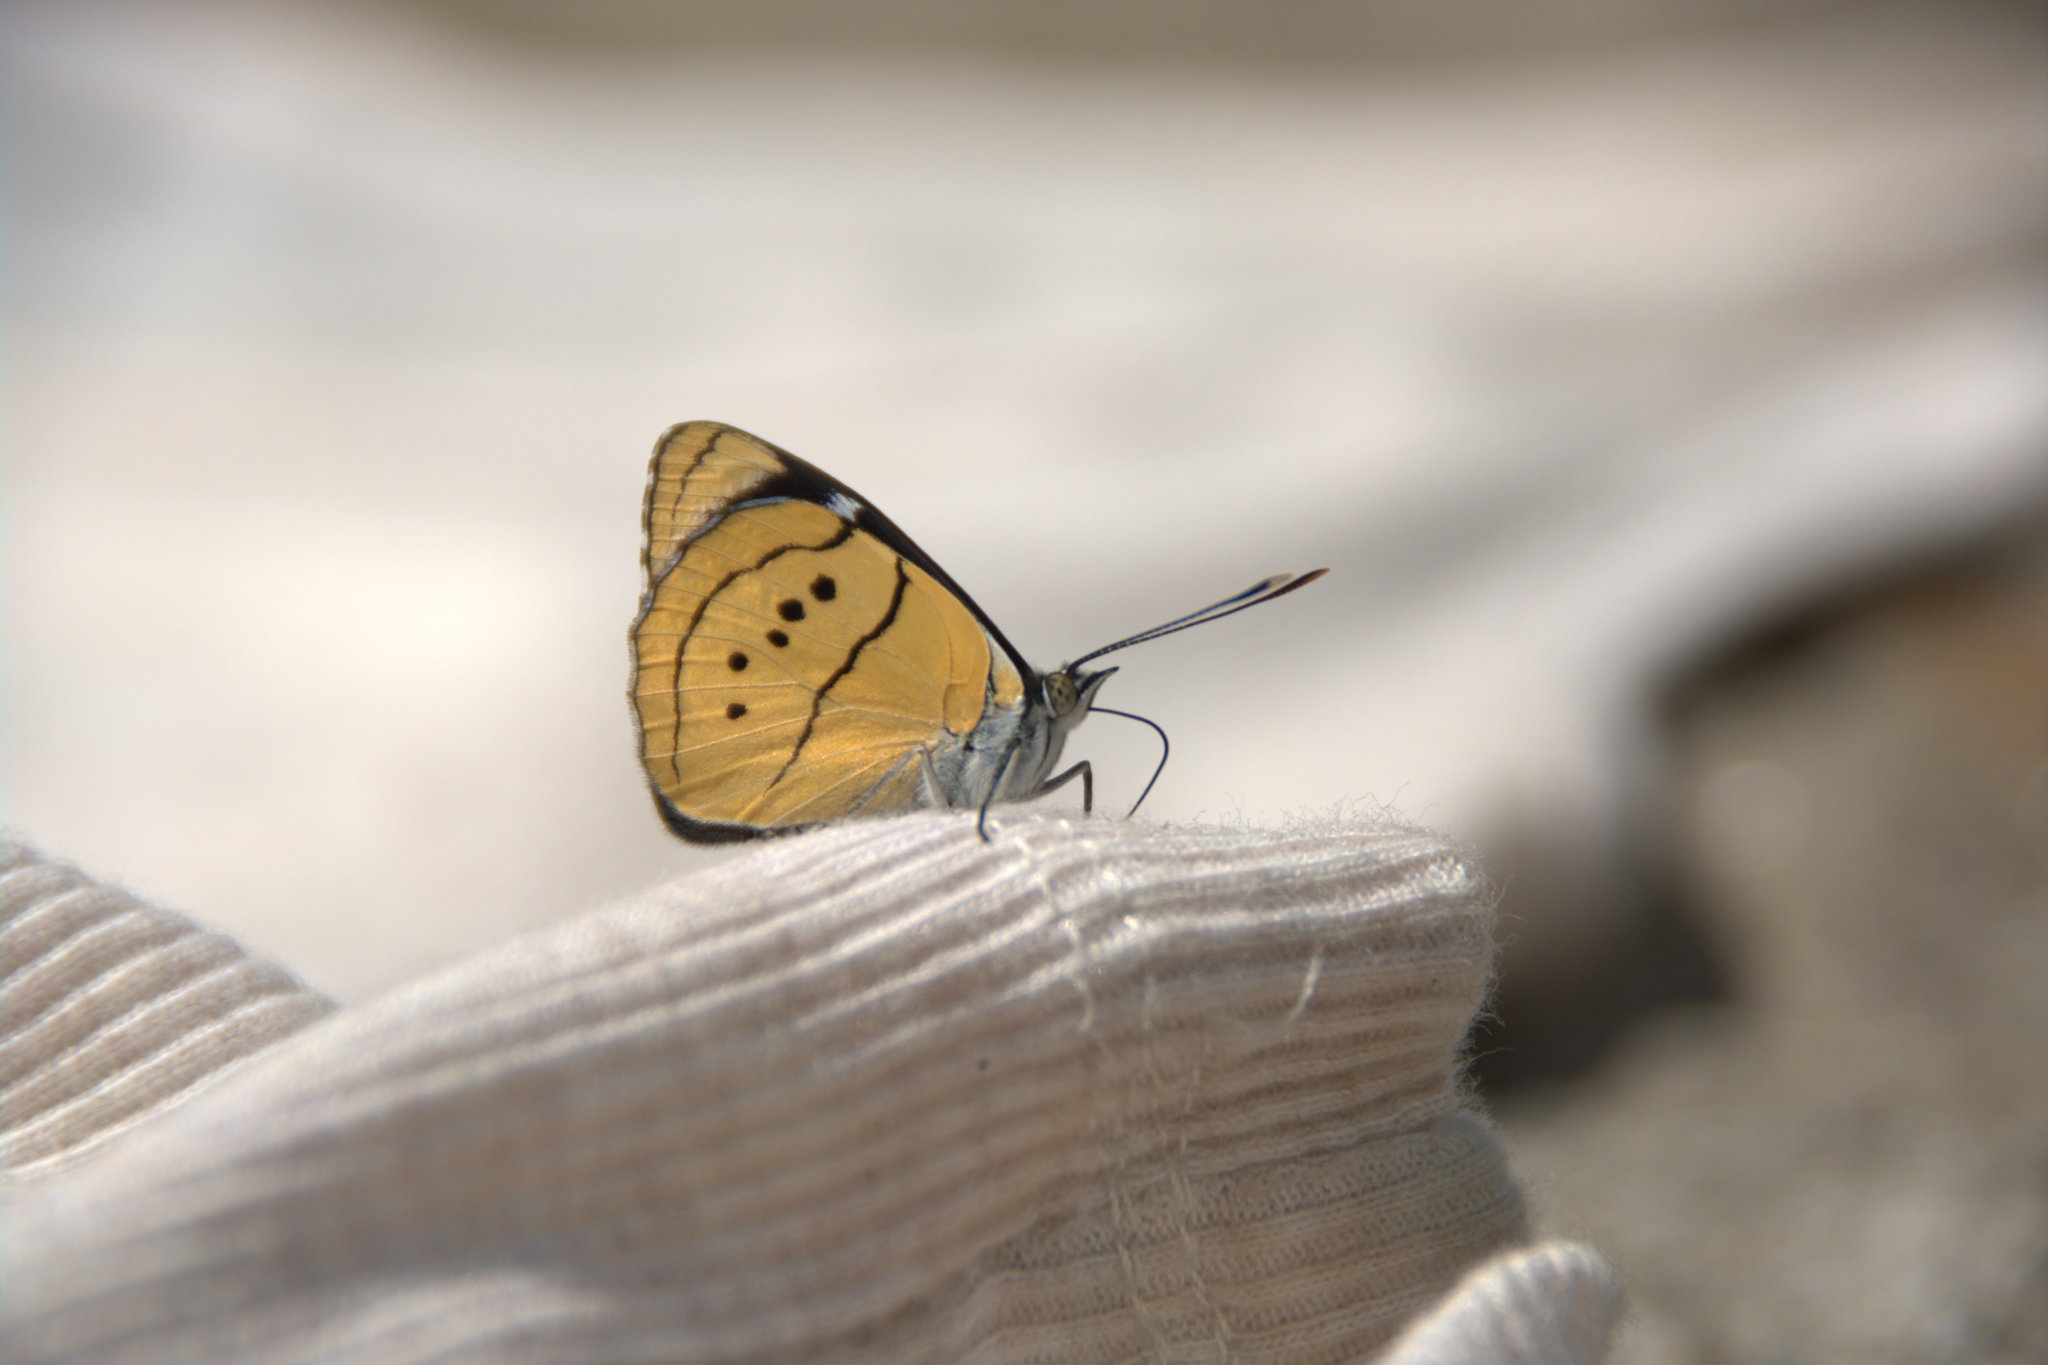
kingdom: Animalia
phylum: Arthropoda
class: Insecta
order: Lepidoptera
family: Nymphalidae
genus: Perisama
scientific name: Perisama humboldtii
